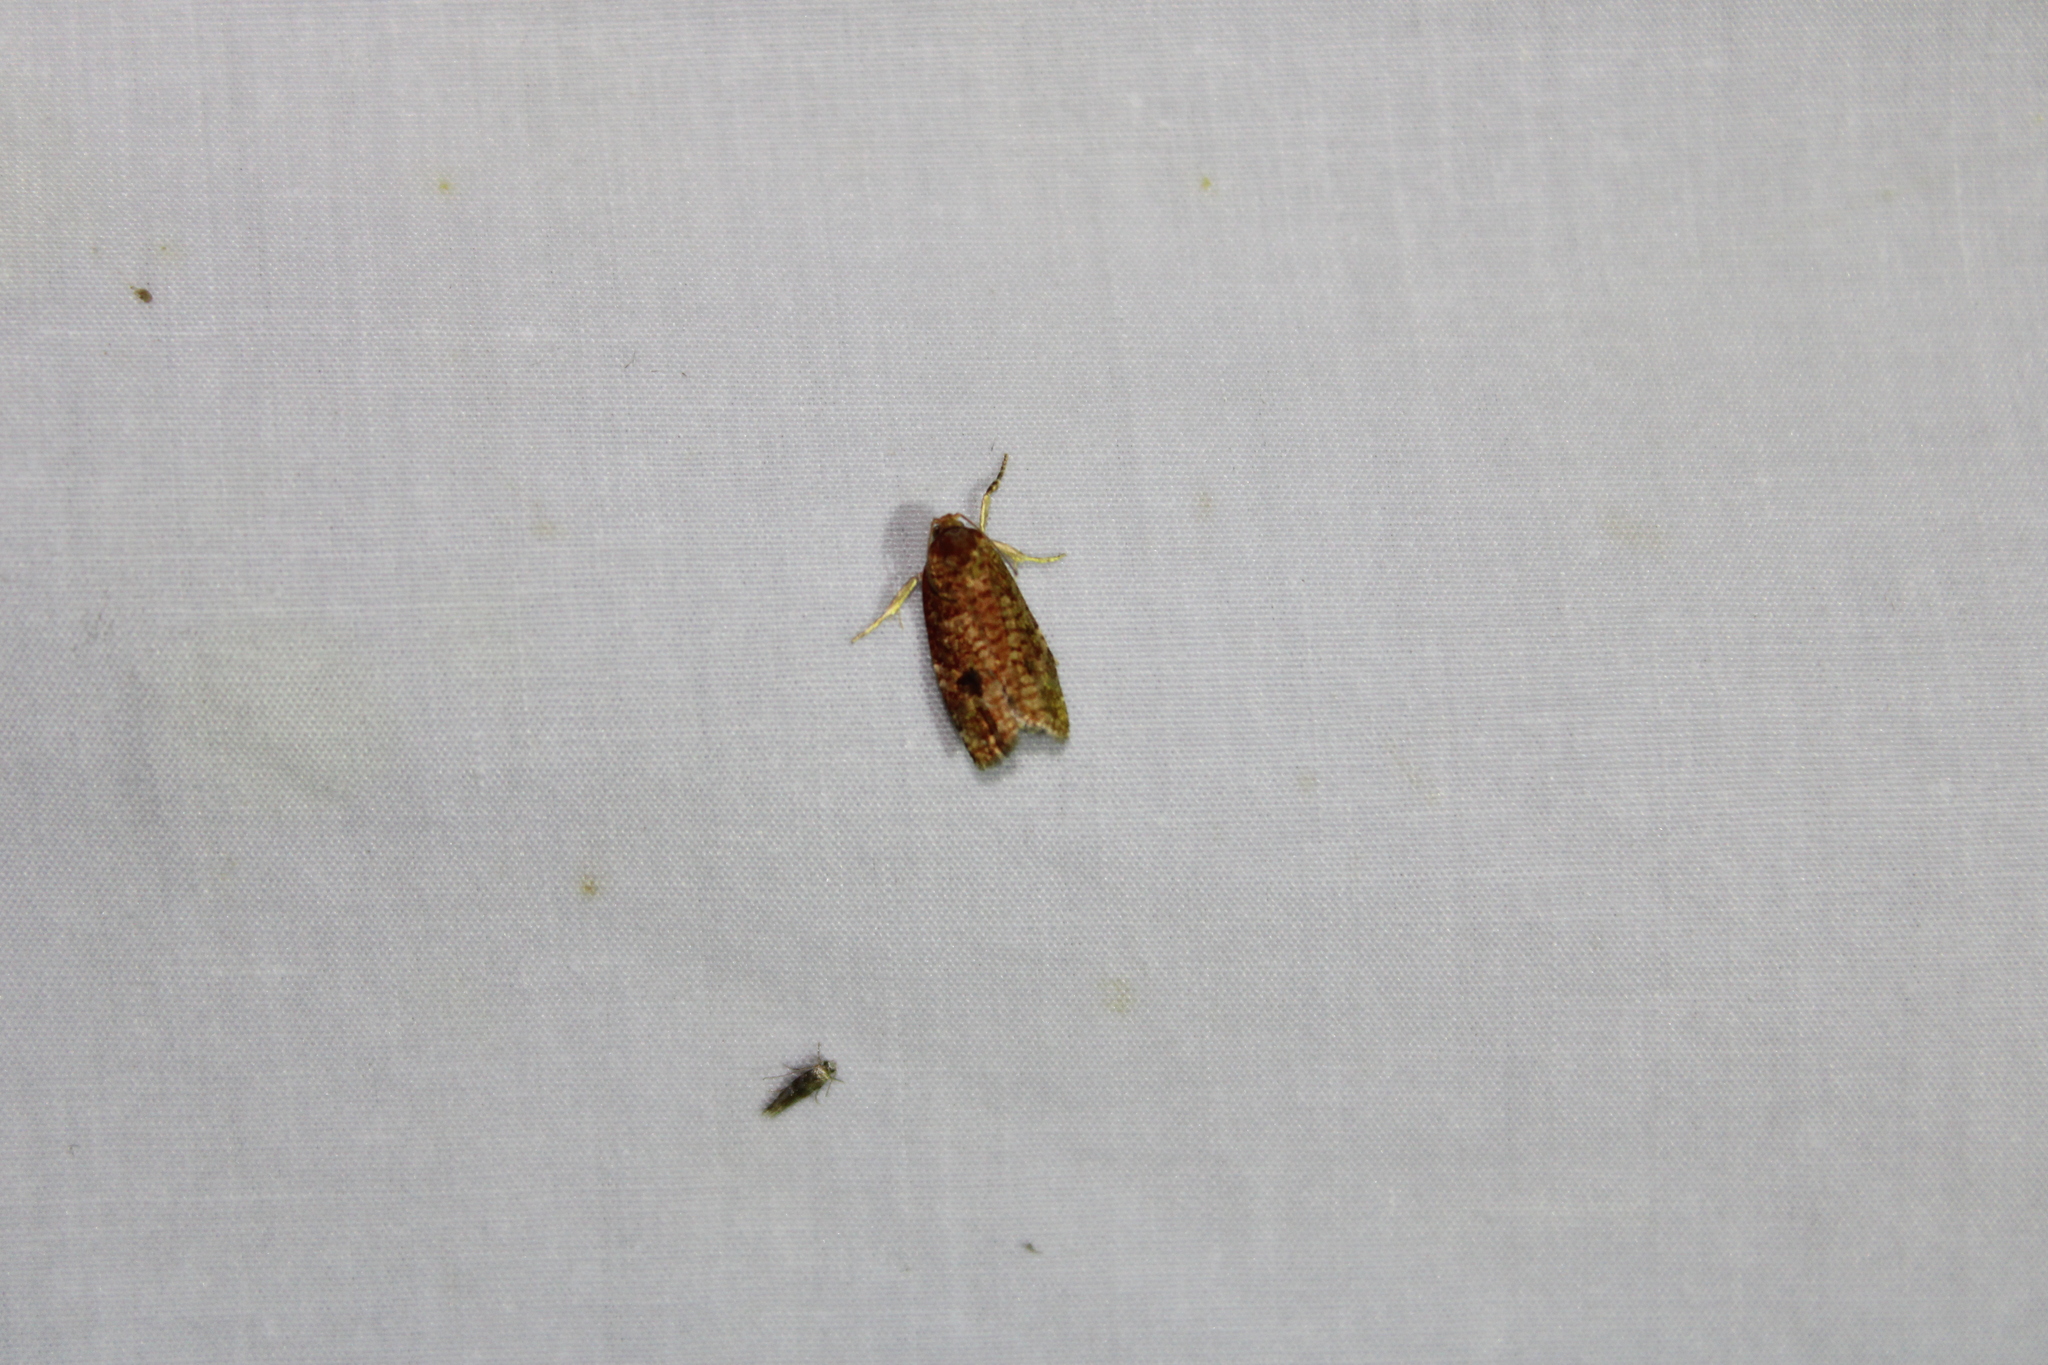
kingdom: Animalia
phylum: Arthropoda
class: Insecta
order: Lepidoptera
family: Tortricidae
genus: Choristoneura
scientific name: Choristoneura pinus
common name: Jack pine budworm
